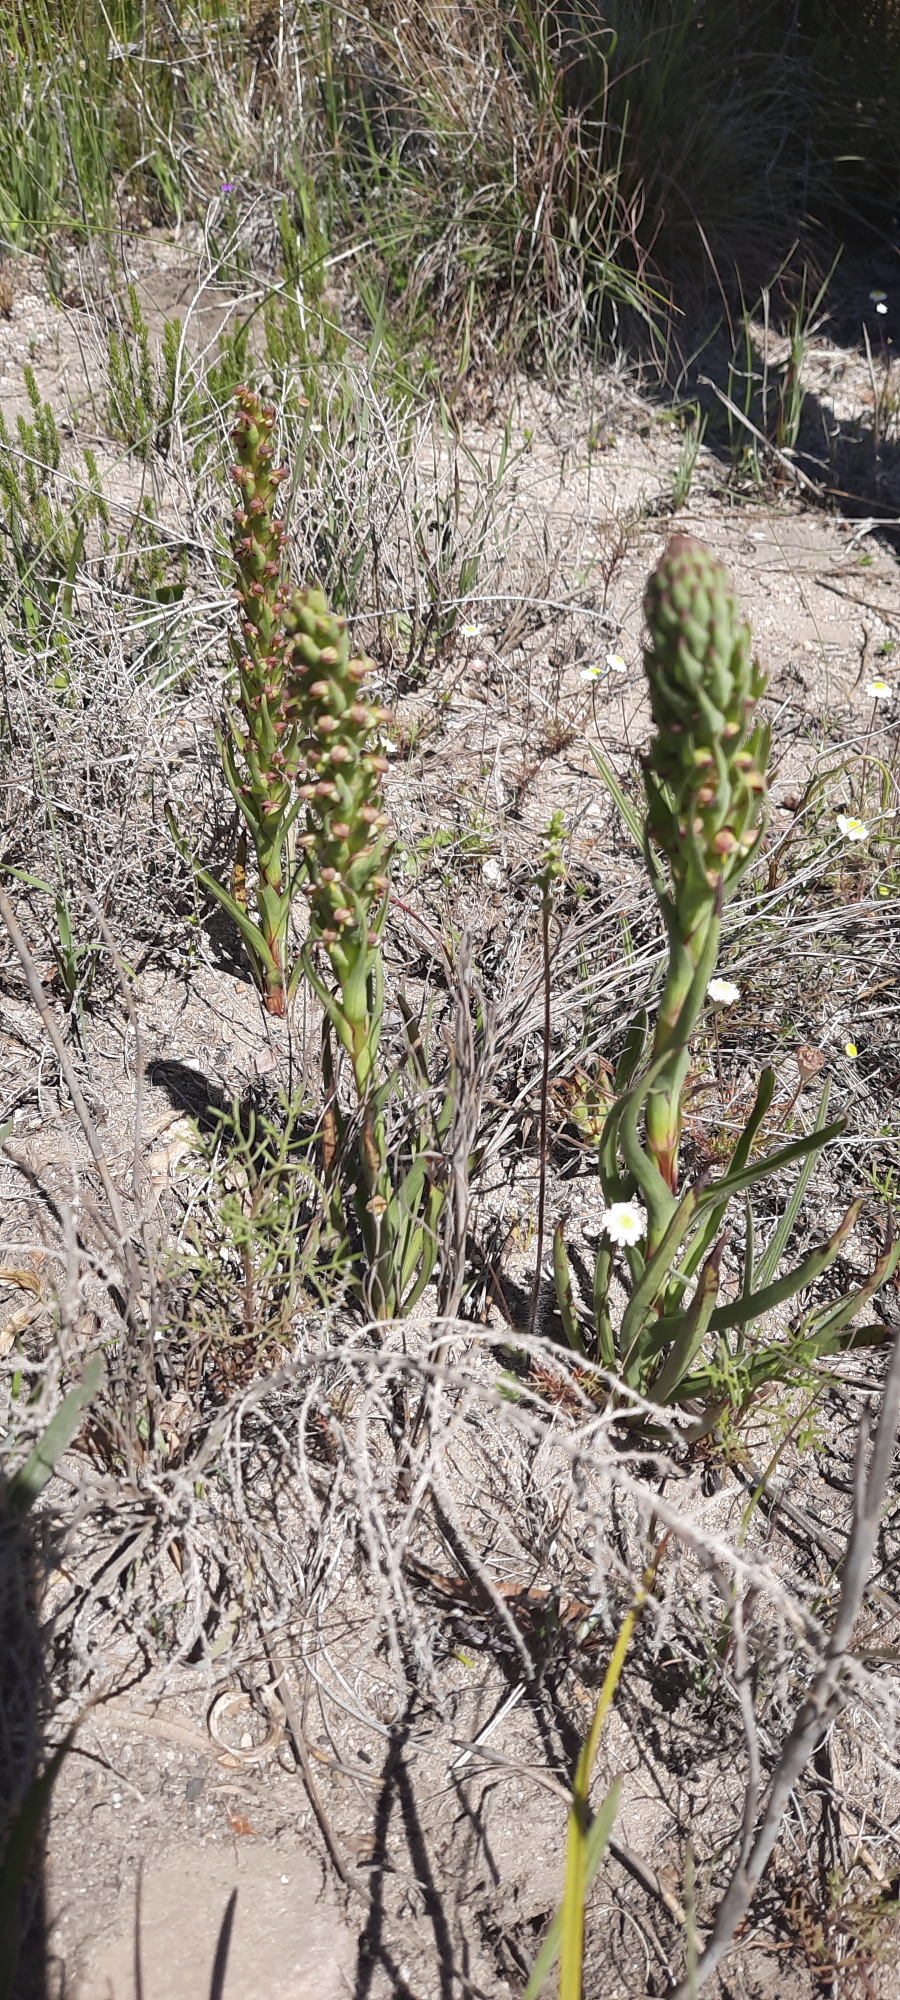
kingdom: Plantae
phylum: Tracheophyta
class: Liliopsida
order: Asparagales
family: Orchidaceae
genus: Disa
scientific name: Disa bracteata
